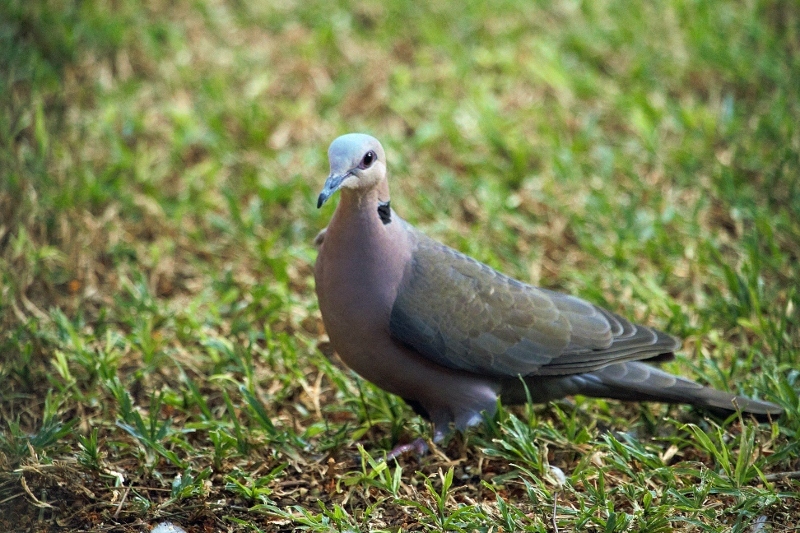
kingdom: Animalia
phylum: Chordata
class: Aves
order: Columbiformes
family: Columbidae
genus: Streptopelia
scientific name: Streptopelia semitorquata
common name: Red-eyed dove
